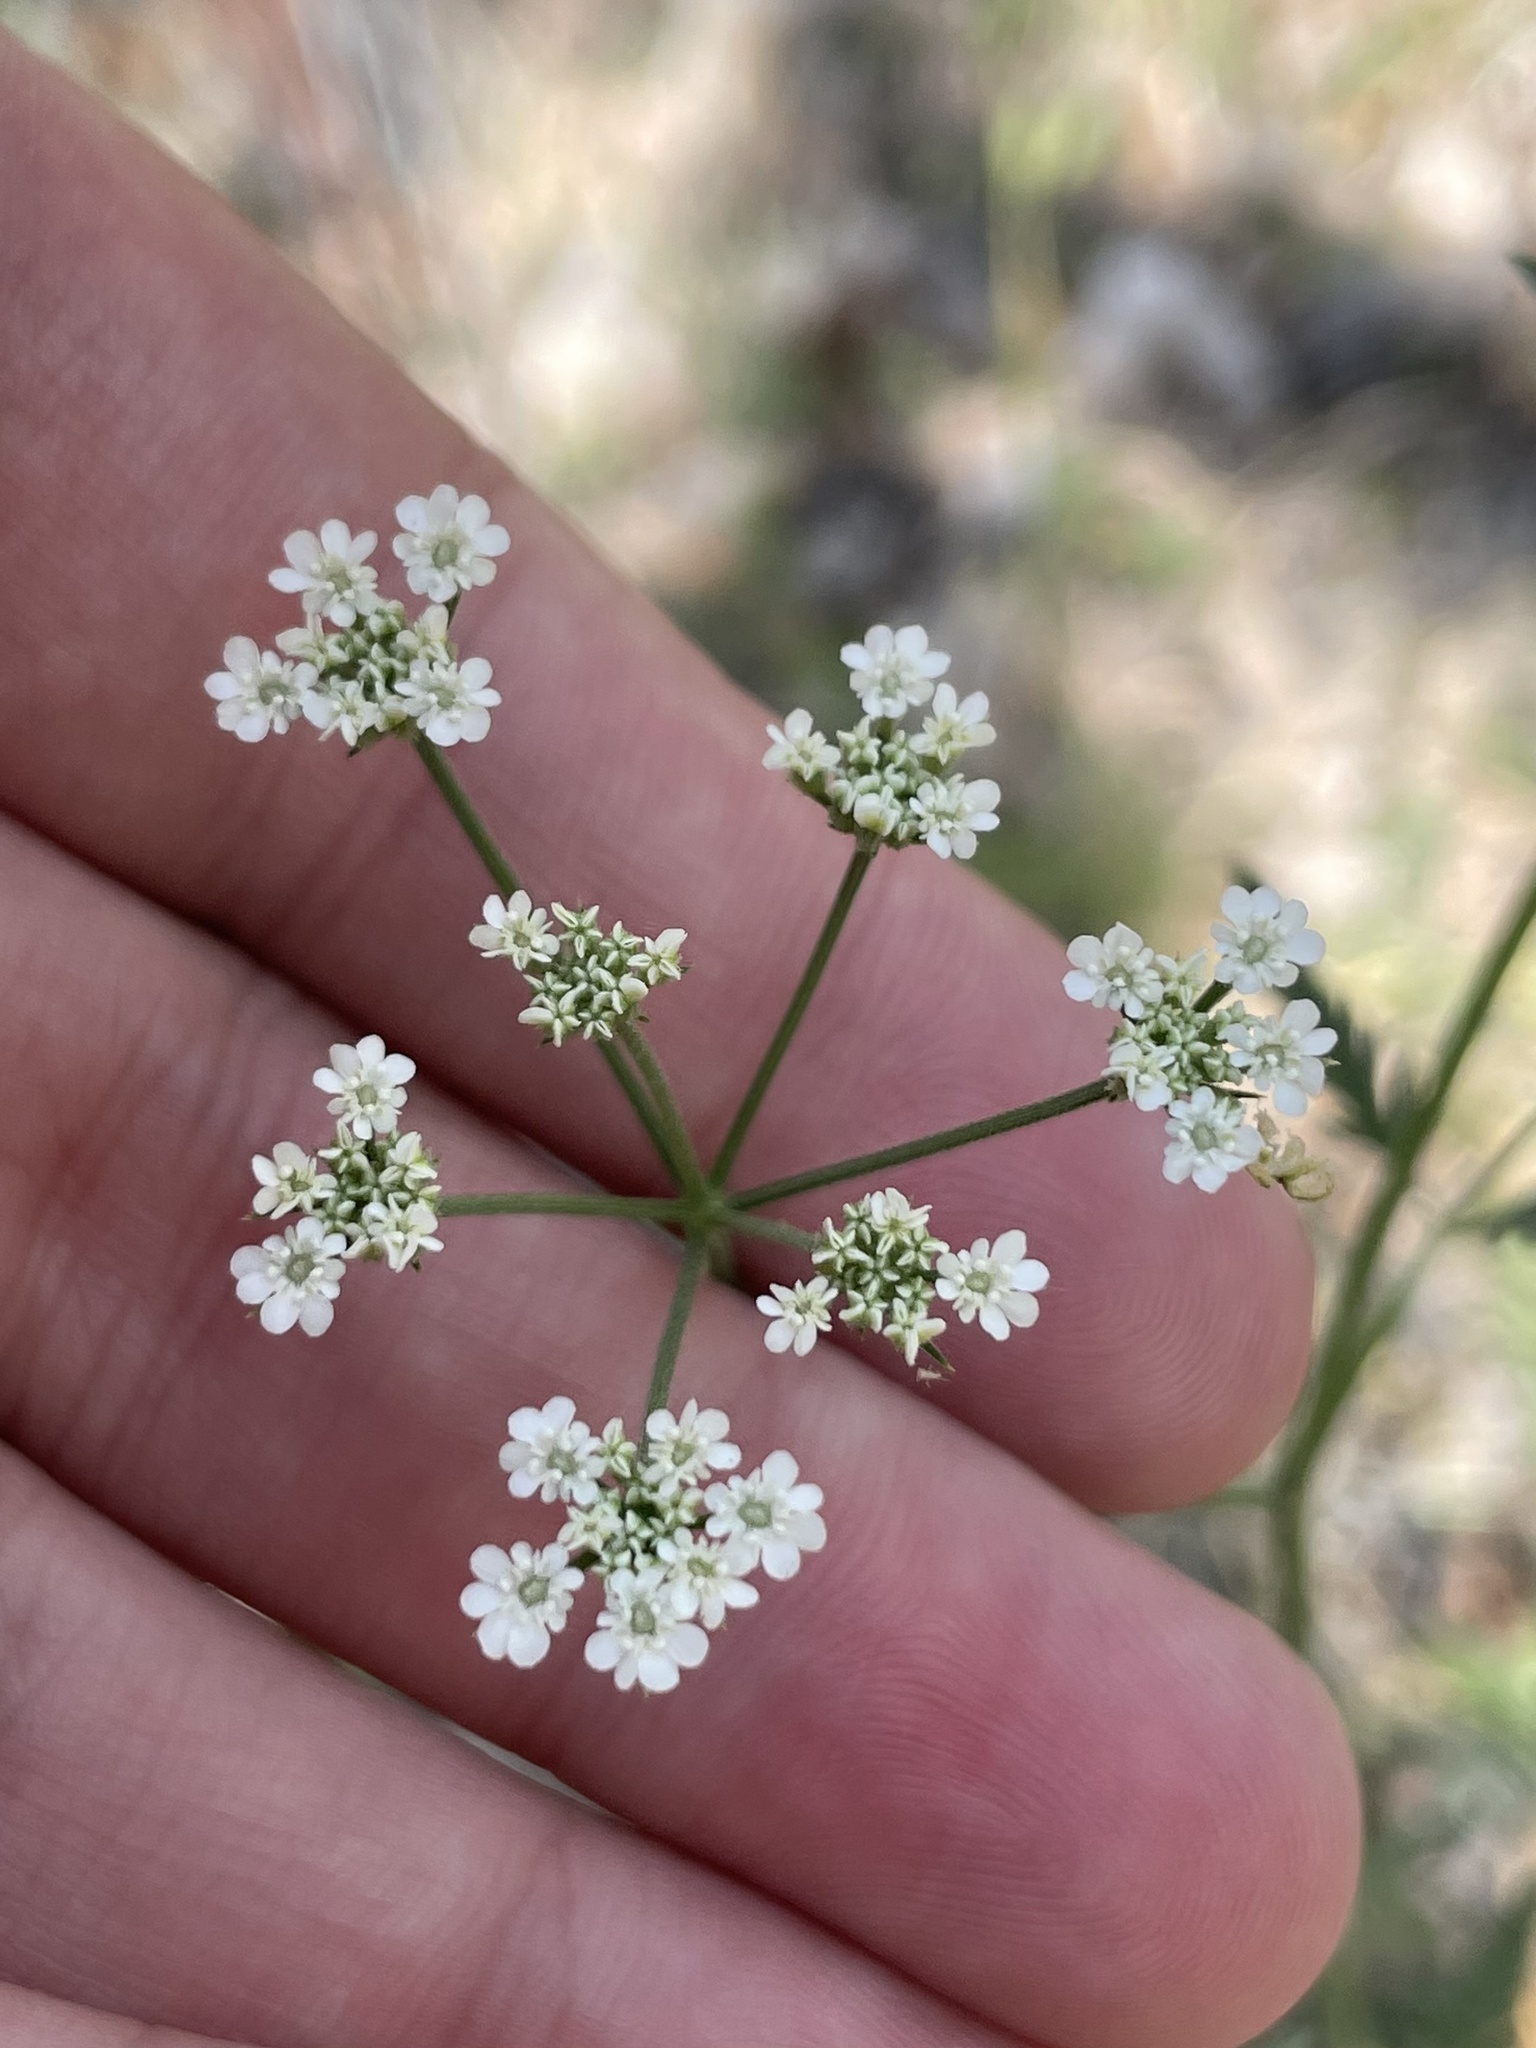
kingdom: Plantae
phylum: Tracheophyta
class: Magnoliopsida
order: Apiales
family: Apiaceae
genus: Torilis
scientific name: Torilis arvensis
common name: Spreading hedge-parsley
